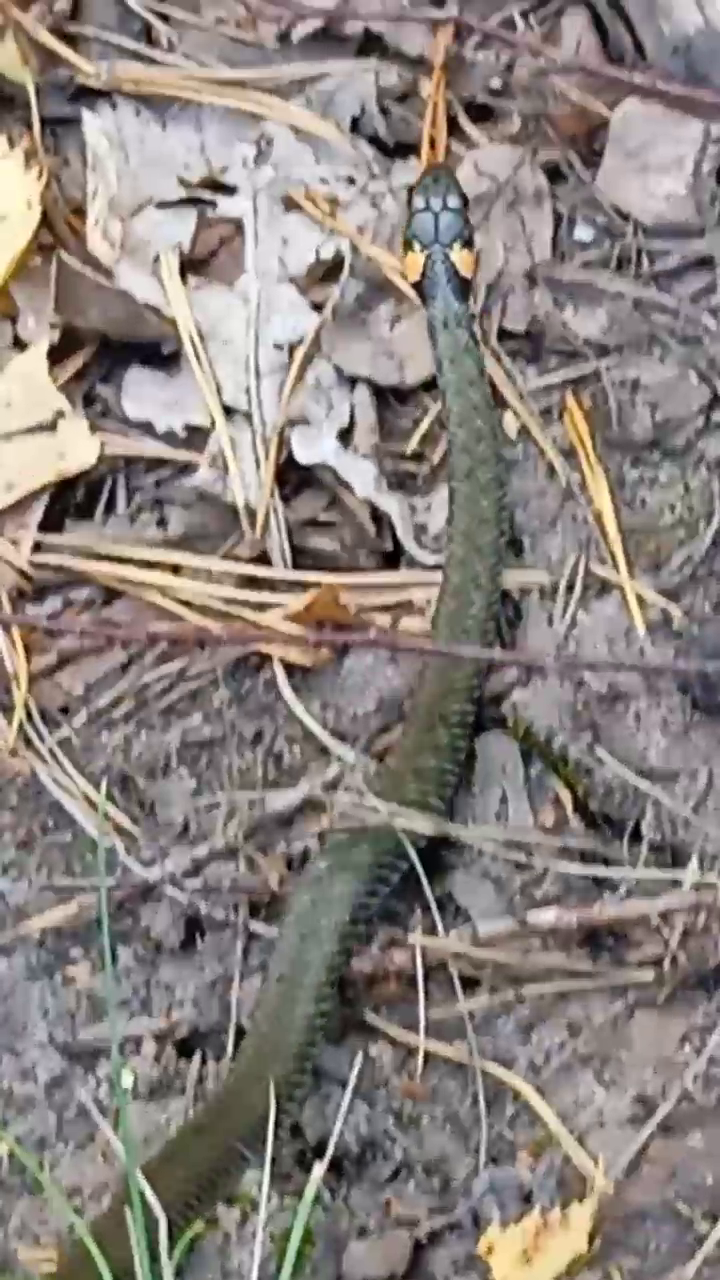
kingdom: Animalia
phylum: Chordata
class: Squamata
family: Colubridae
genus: Natrix
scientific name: Natrix natrix
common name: Grass snake
